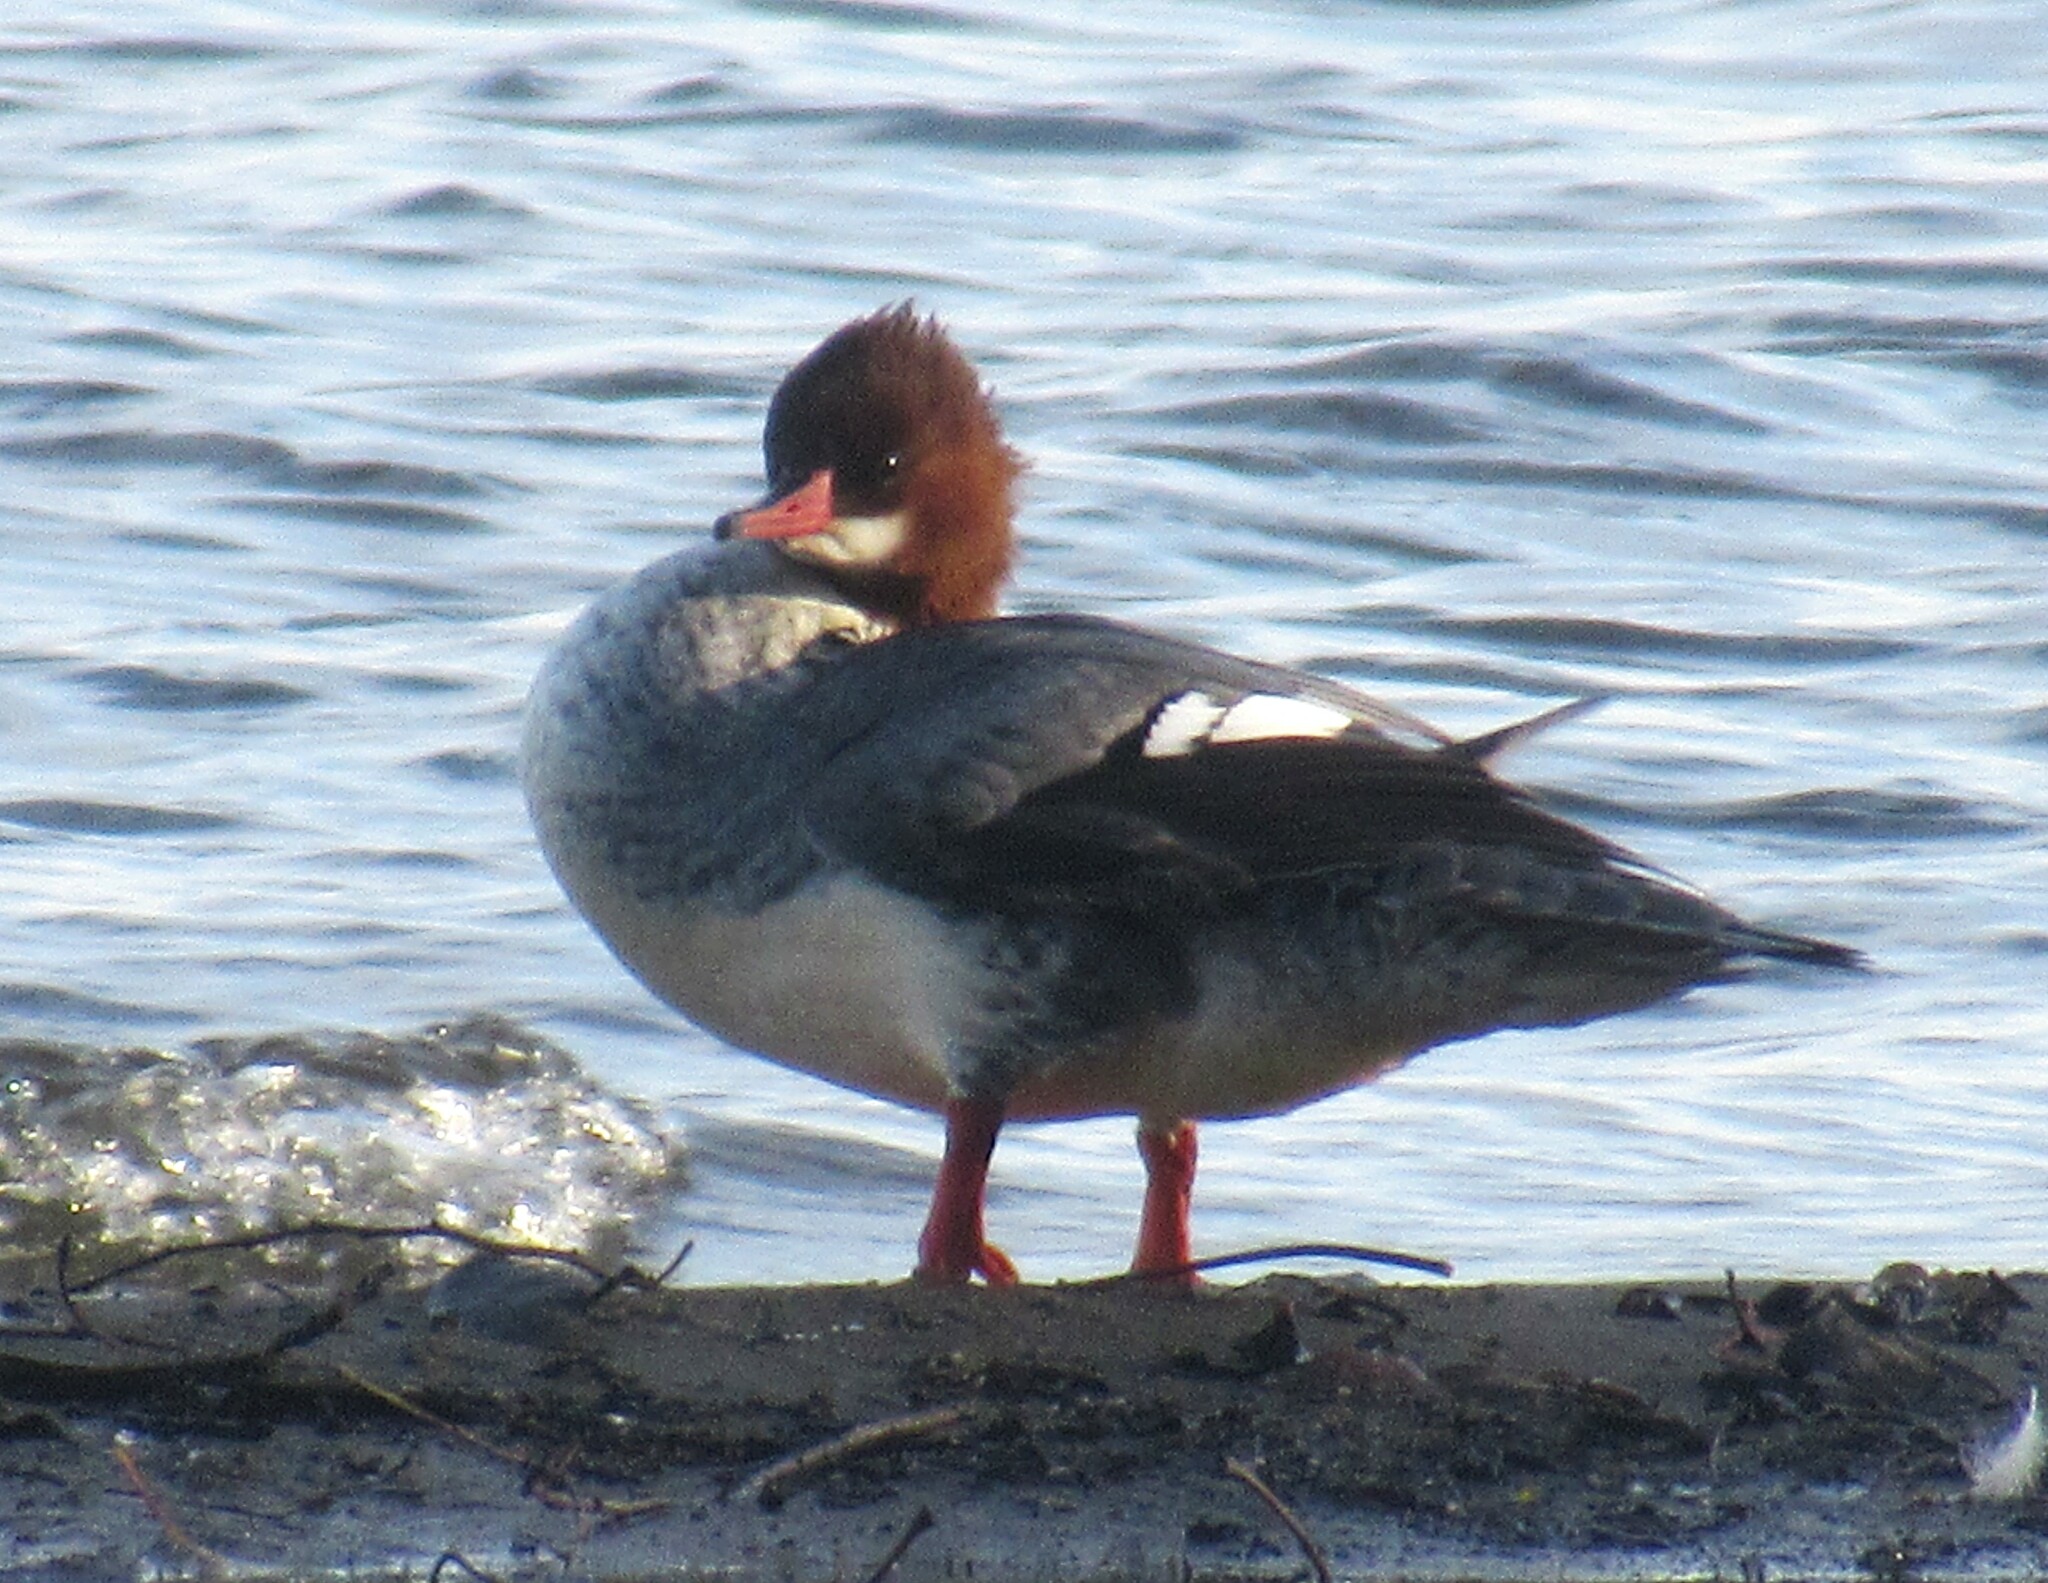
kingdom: Animalia
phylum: Chordata
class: Aves
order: Anseriformes
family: Anatidae
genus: Mergus
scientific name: Mergus merganser
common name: Common merganser
